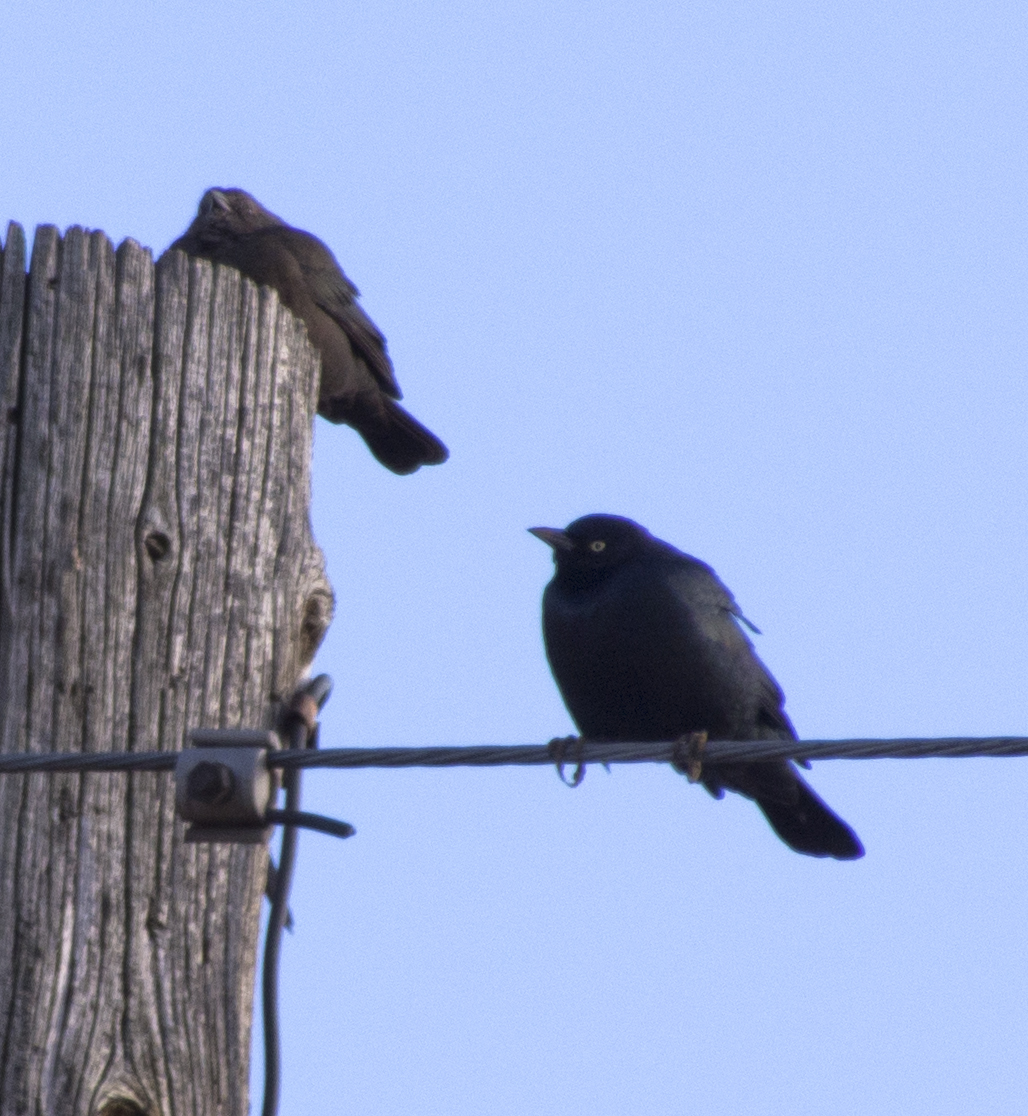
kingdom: Animalia
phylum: Chordata
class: Aves
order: Passeriformes
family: Icteridae
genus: Euphagus
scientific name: Euphagus cyanocephalus
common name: Brewer's blackbird
